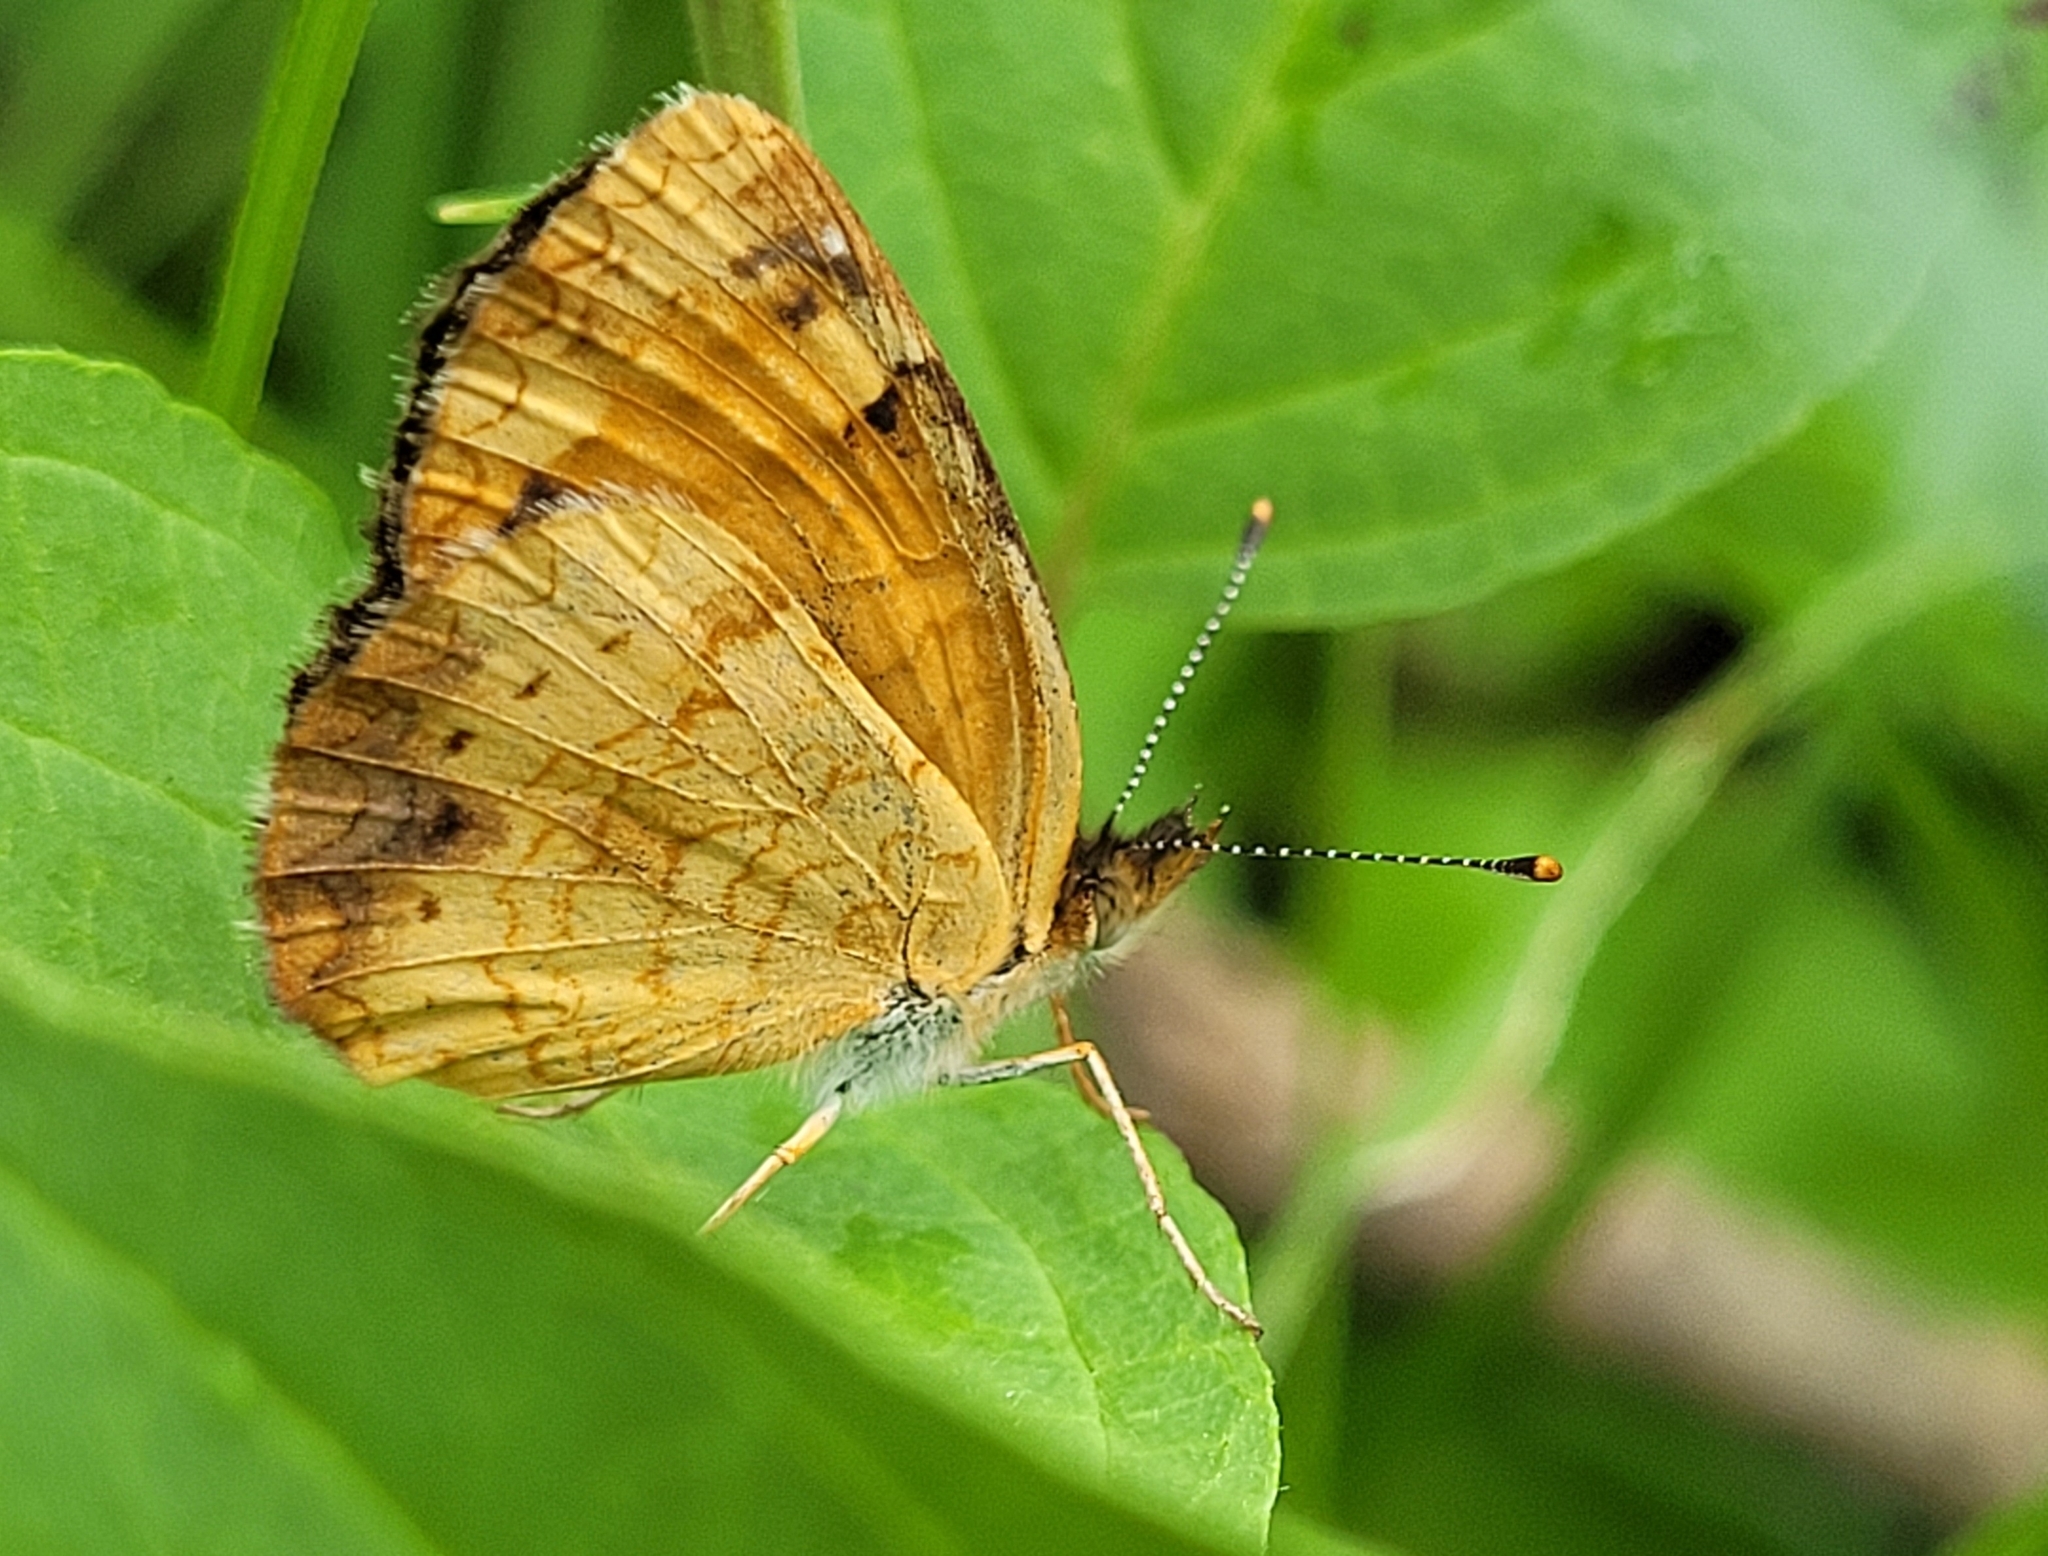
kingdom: Animalia
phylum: Arthropoda
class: Insecta
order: Lepidoptera
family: Nymphalidae
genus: Phyciodes
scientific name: Phyciodes tharos
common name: Pearl crescent
